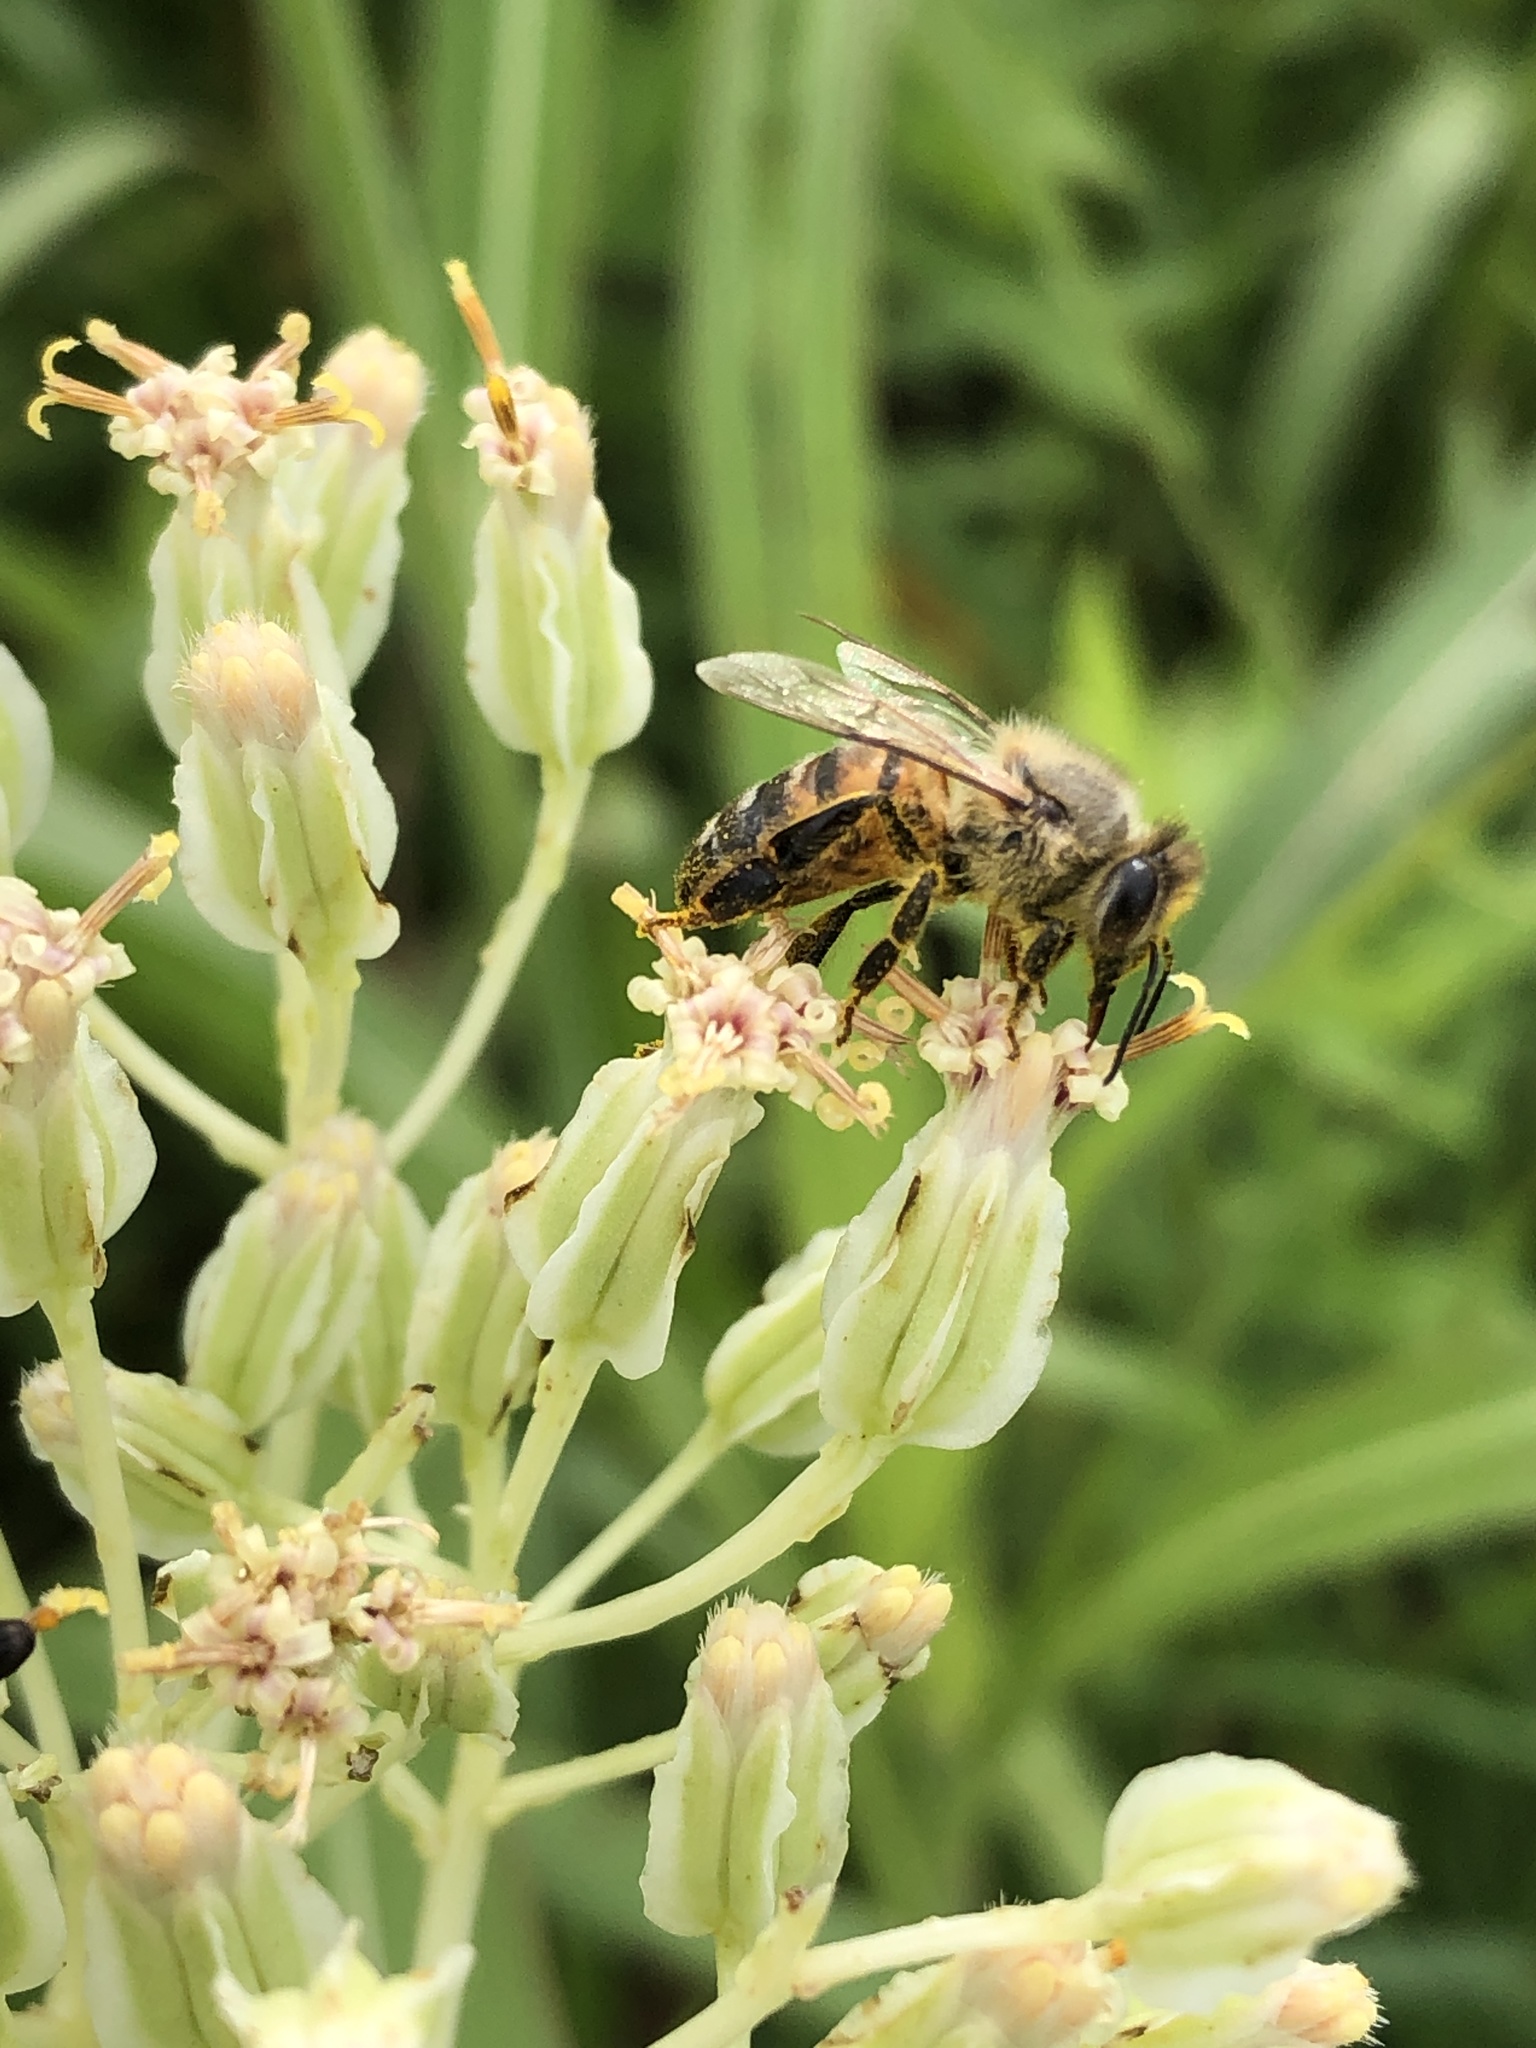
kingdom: Animalia
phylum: Arthropoda
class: Insecta
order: Hymenoptera
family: Apidae
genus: Apis
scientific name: Apis mellifera
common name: Honey bee
